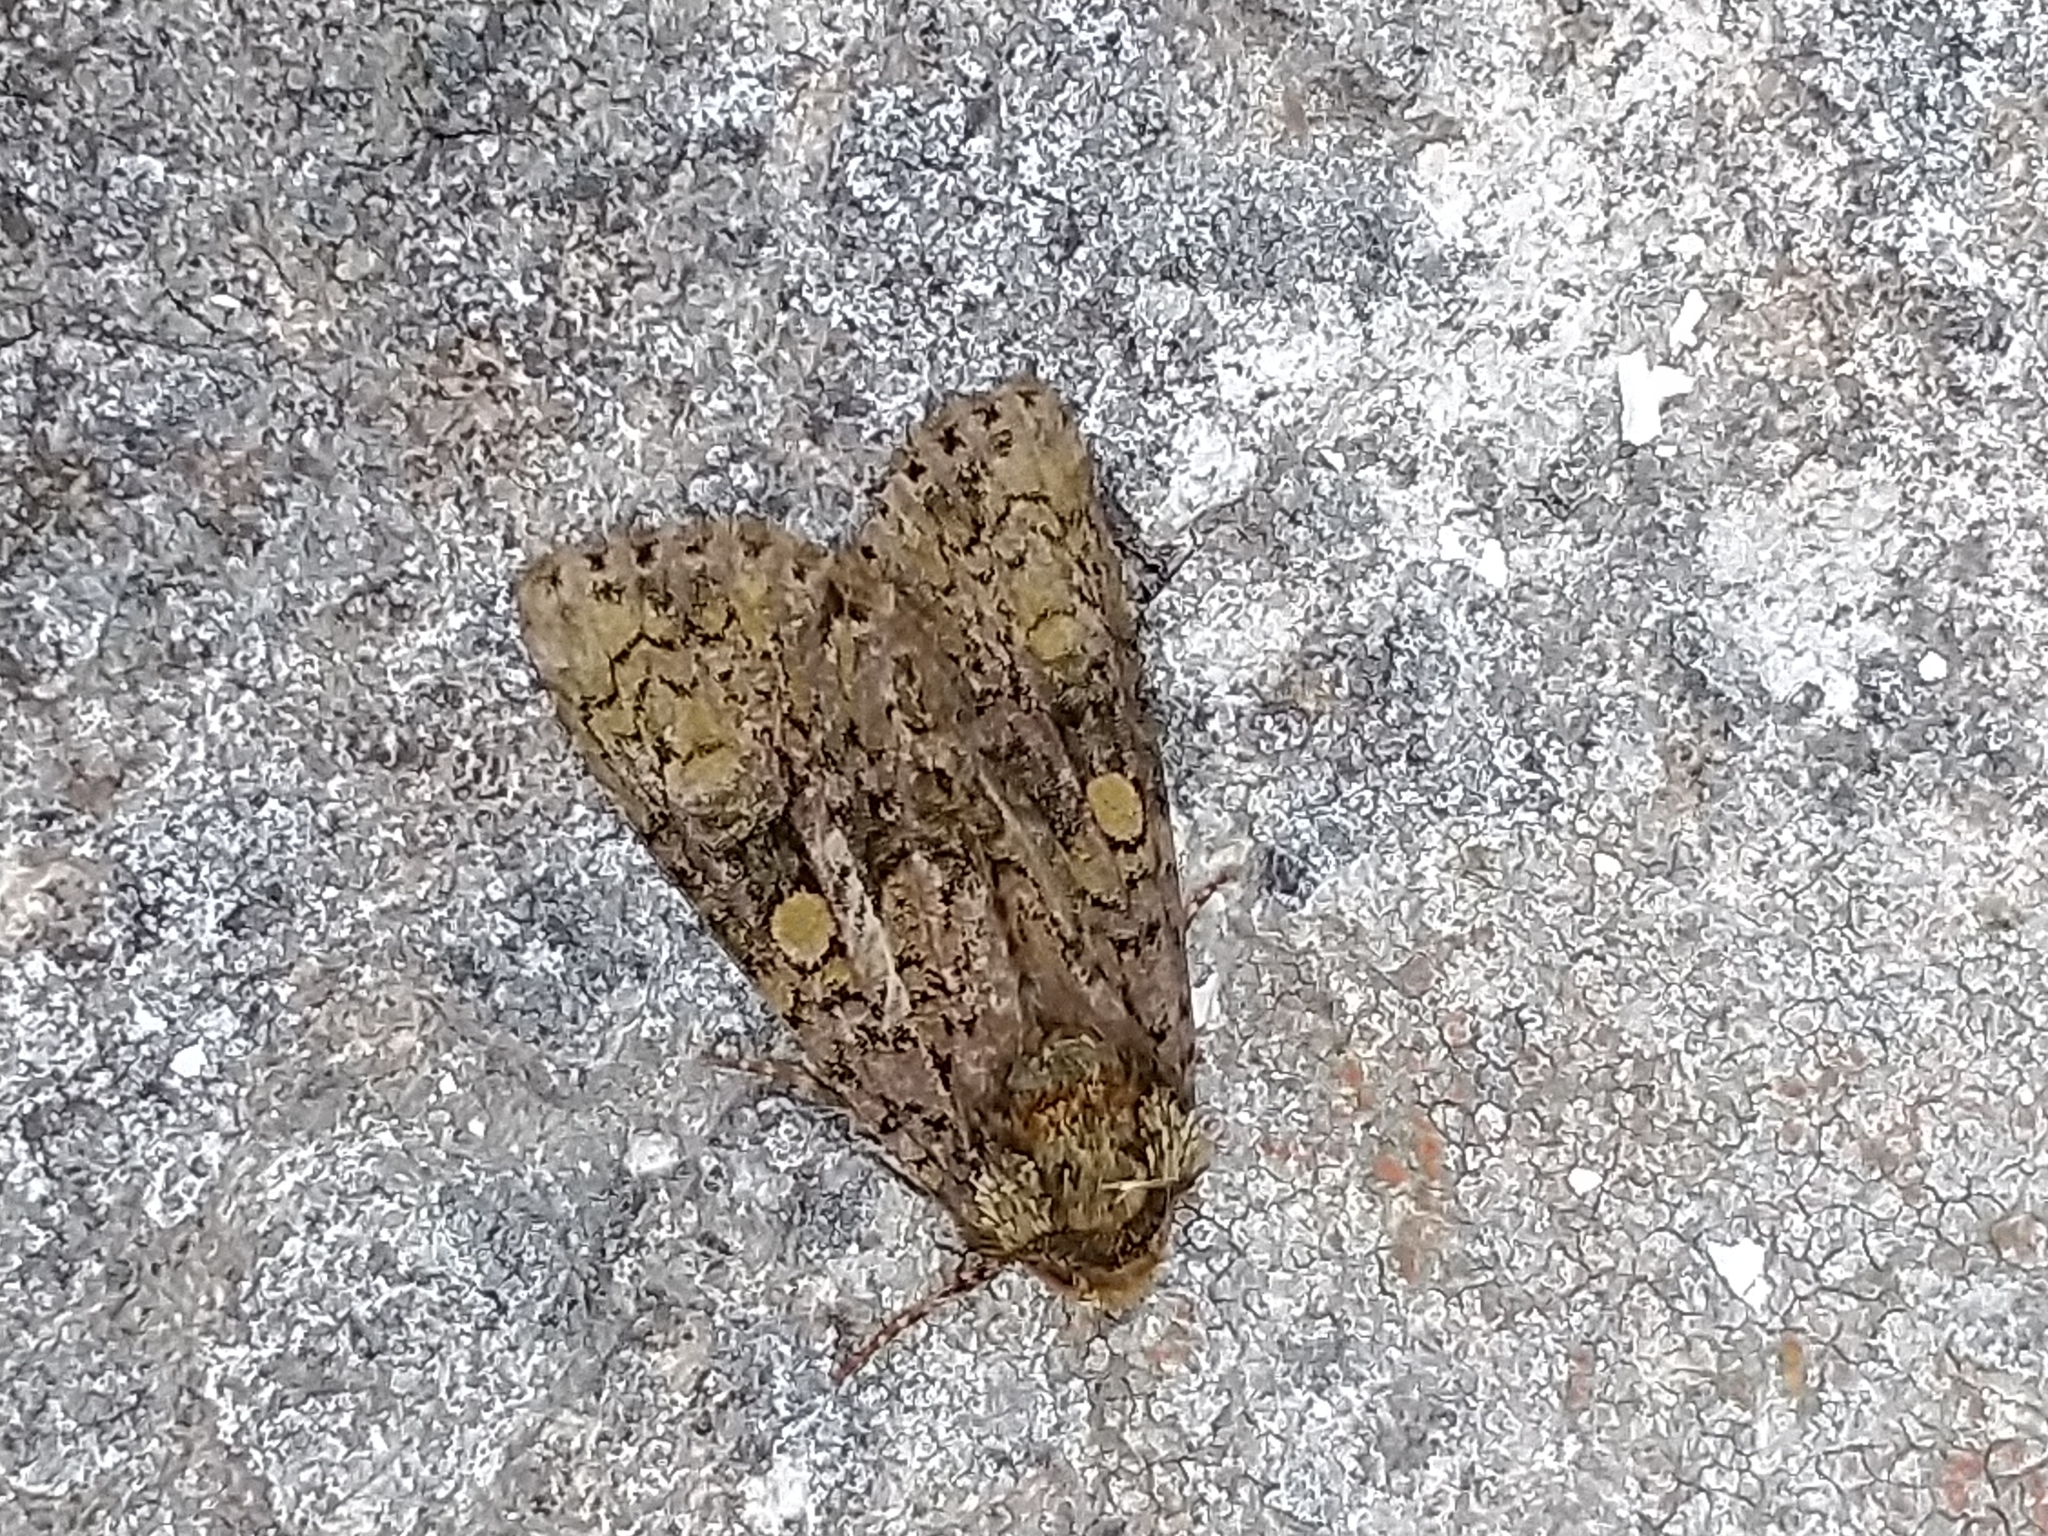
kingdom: Animalia
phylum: Arthropoda
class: Insecta
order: Lepidoptera
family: Noctuidae
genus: Craniophora
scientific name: Craniophora ligustri
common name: Coronet
